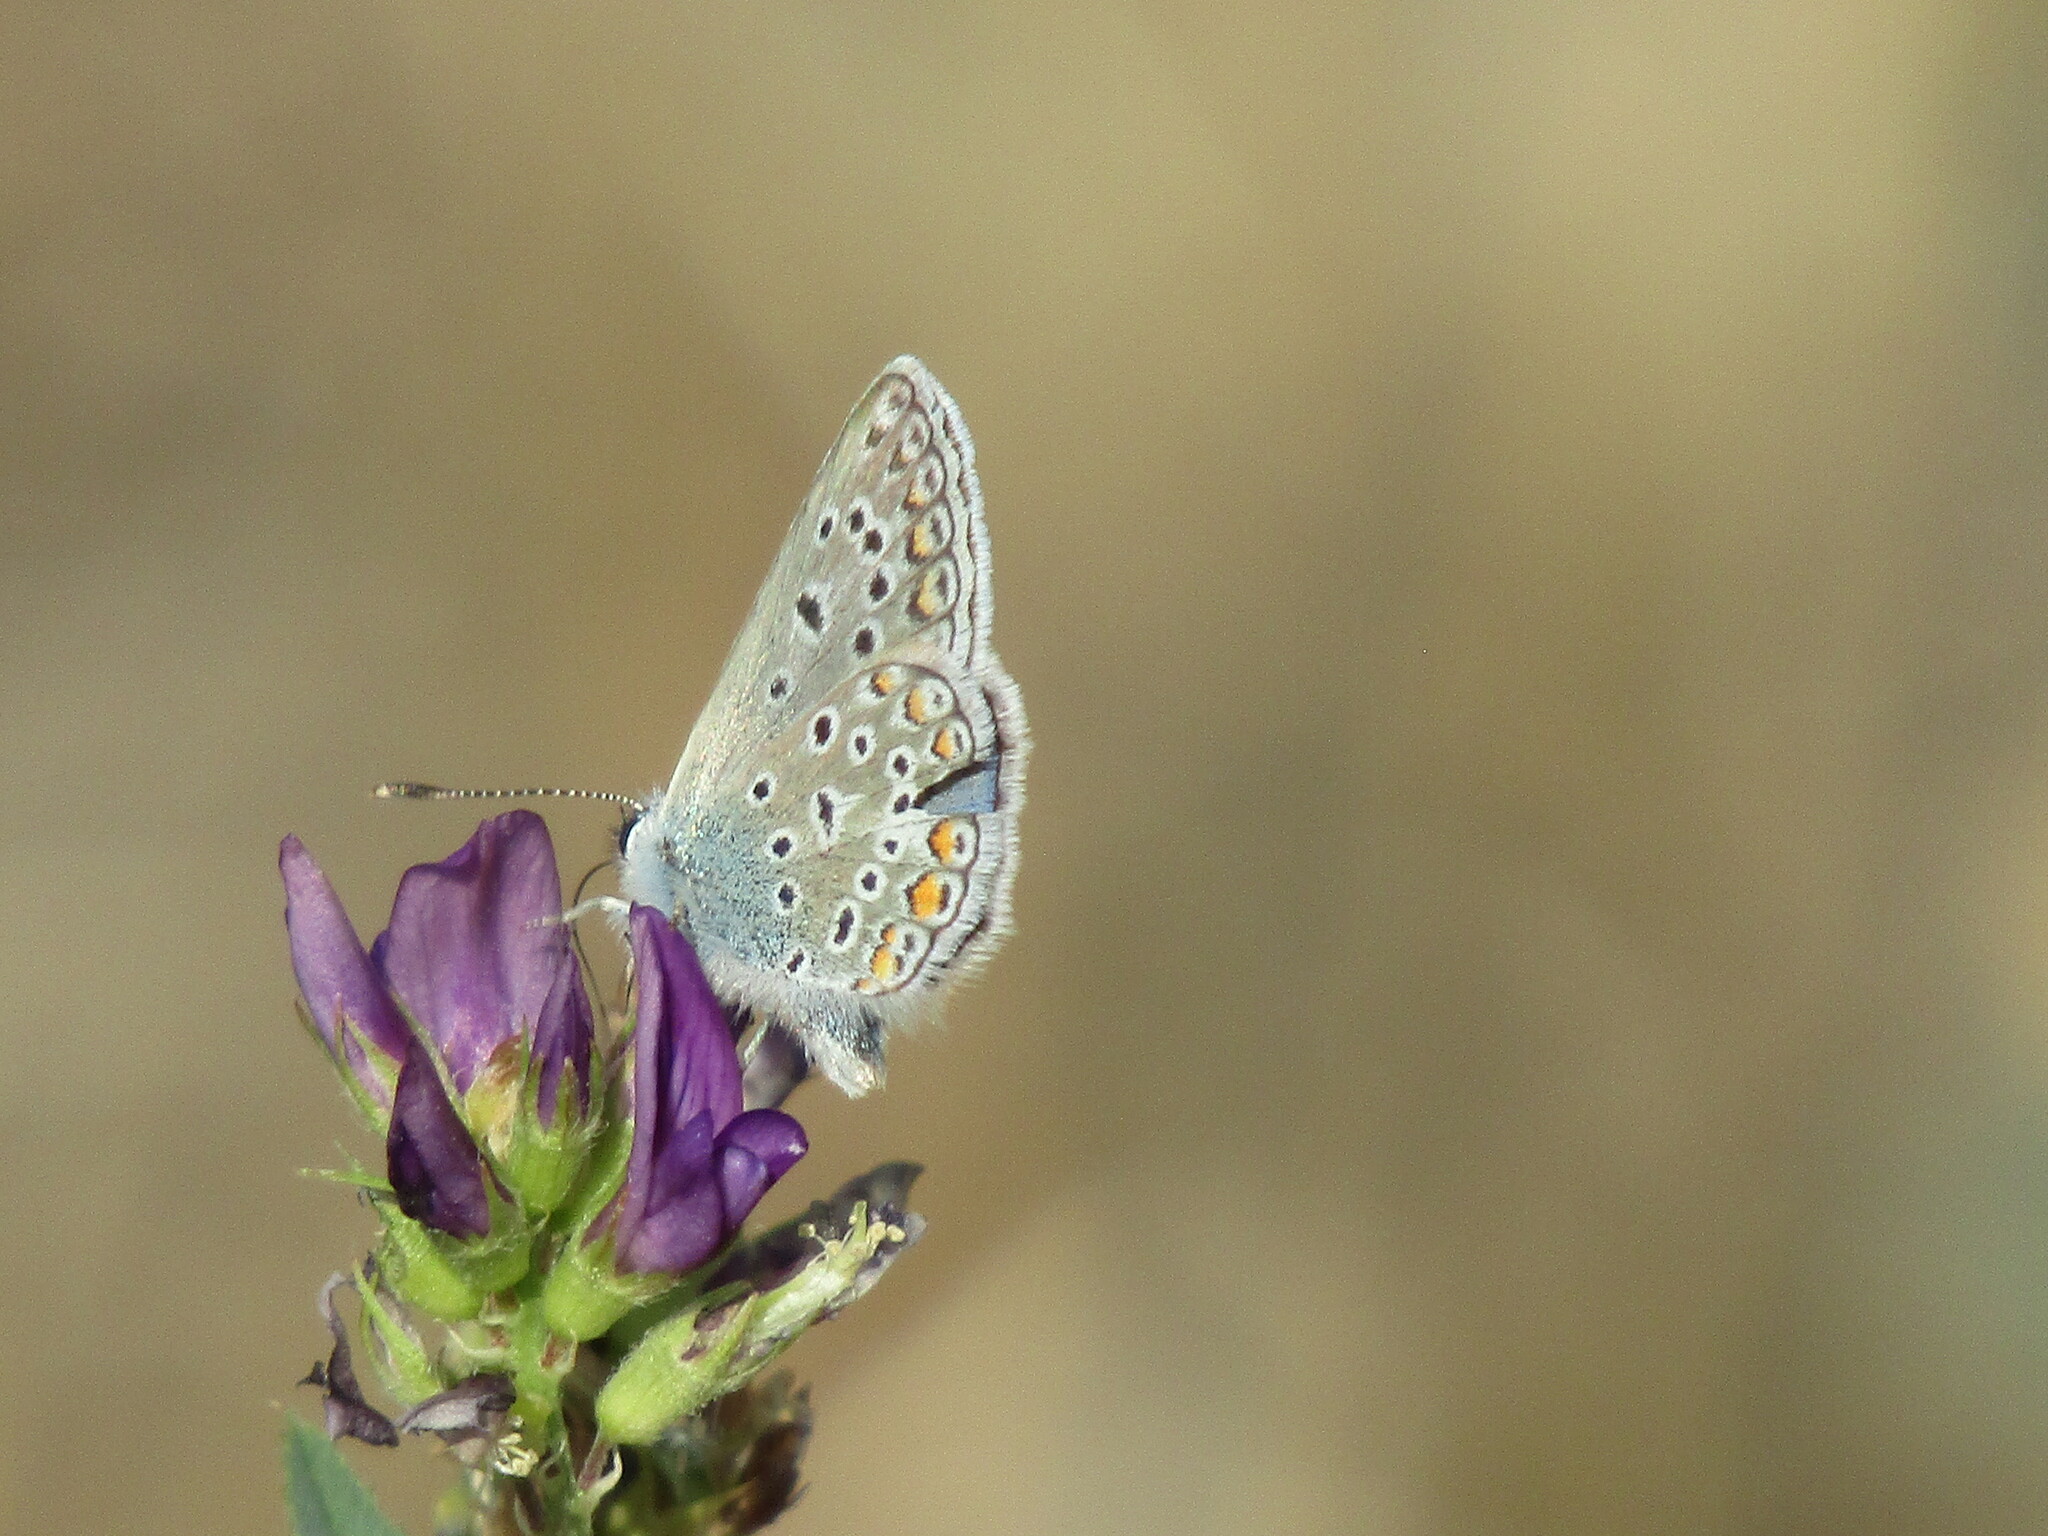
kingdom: Animalia
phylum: Arthropoda
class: Insecta
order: Lepidoptera
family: Lycaenidae
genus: Polyommatus
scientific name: Polyommatus icarus
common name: Common blue
